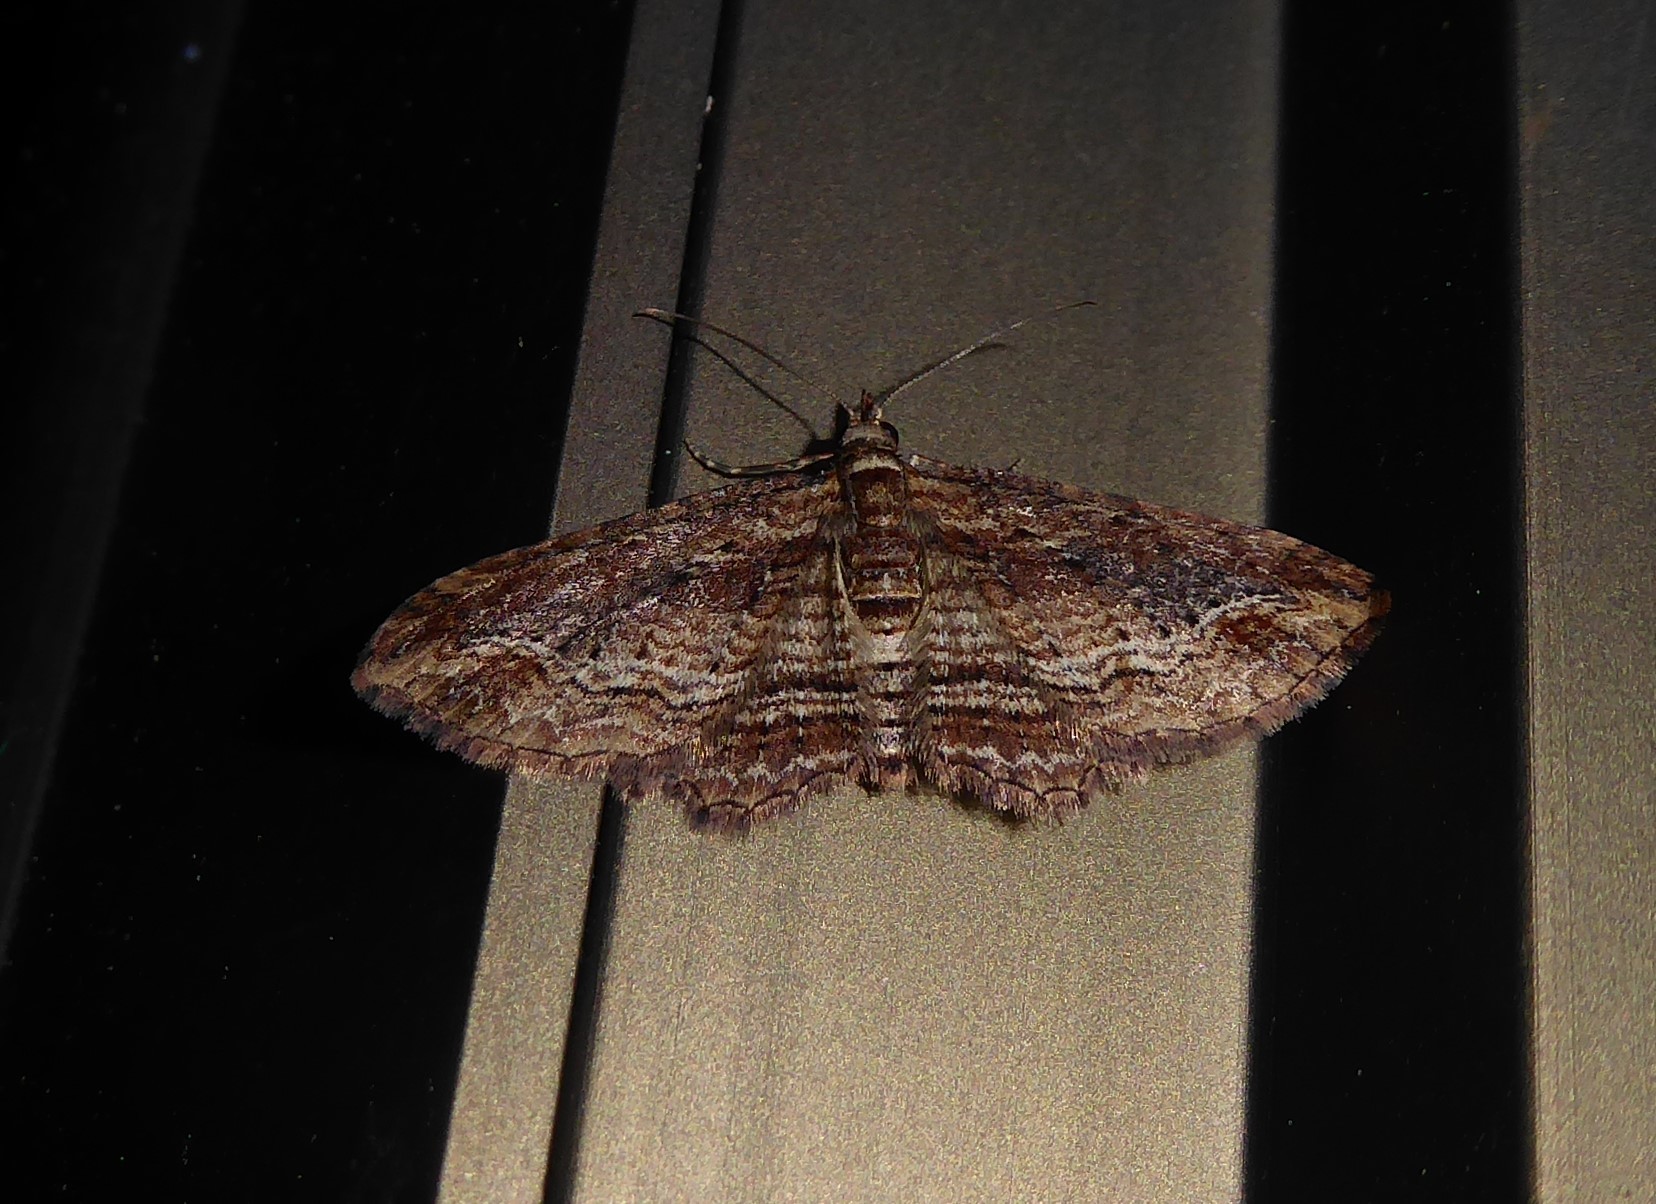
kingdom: Animalia
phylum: Arthropoda
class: Insecta
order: Lepidoptera
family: Geometridae
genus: Chloroclystis
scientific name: Chloroclystis filata
